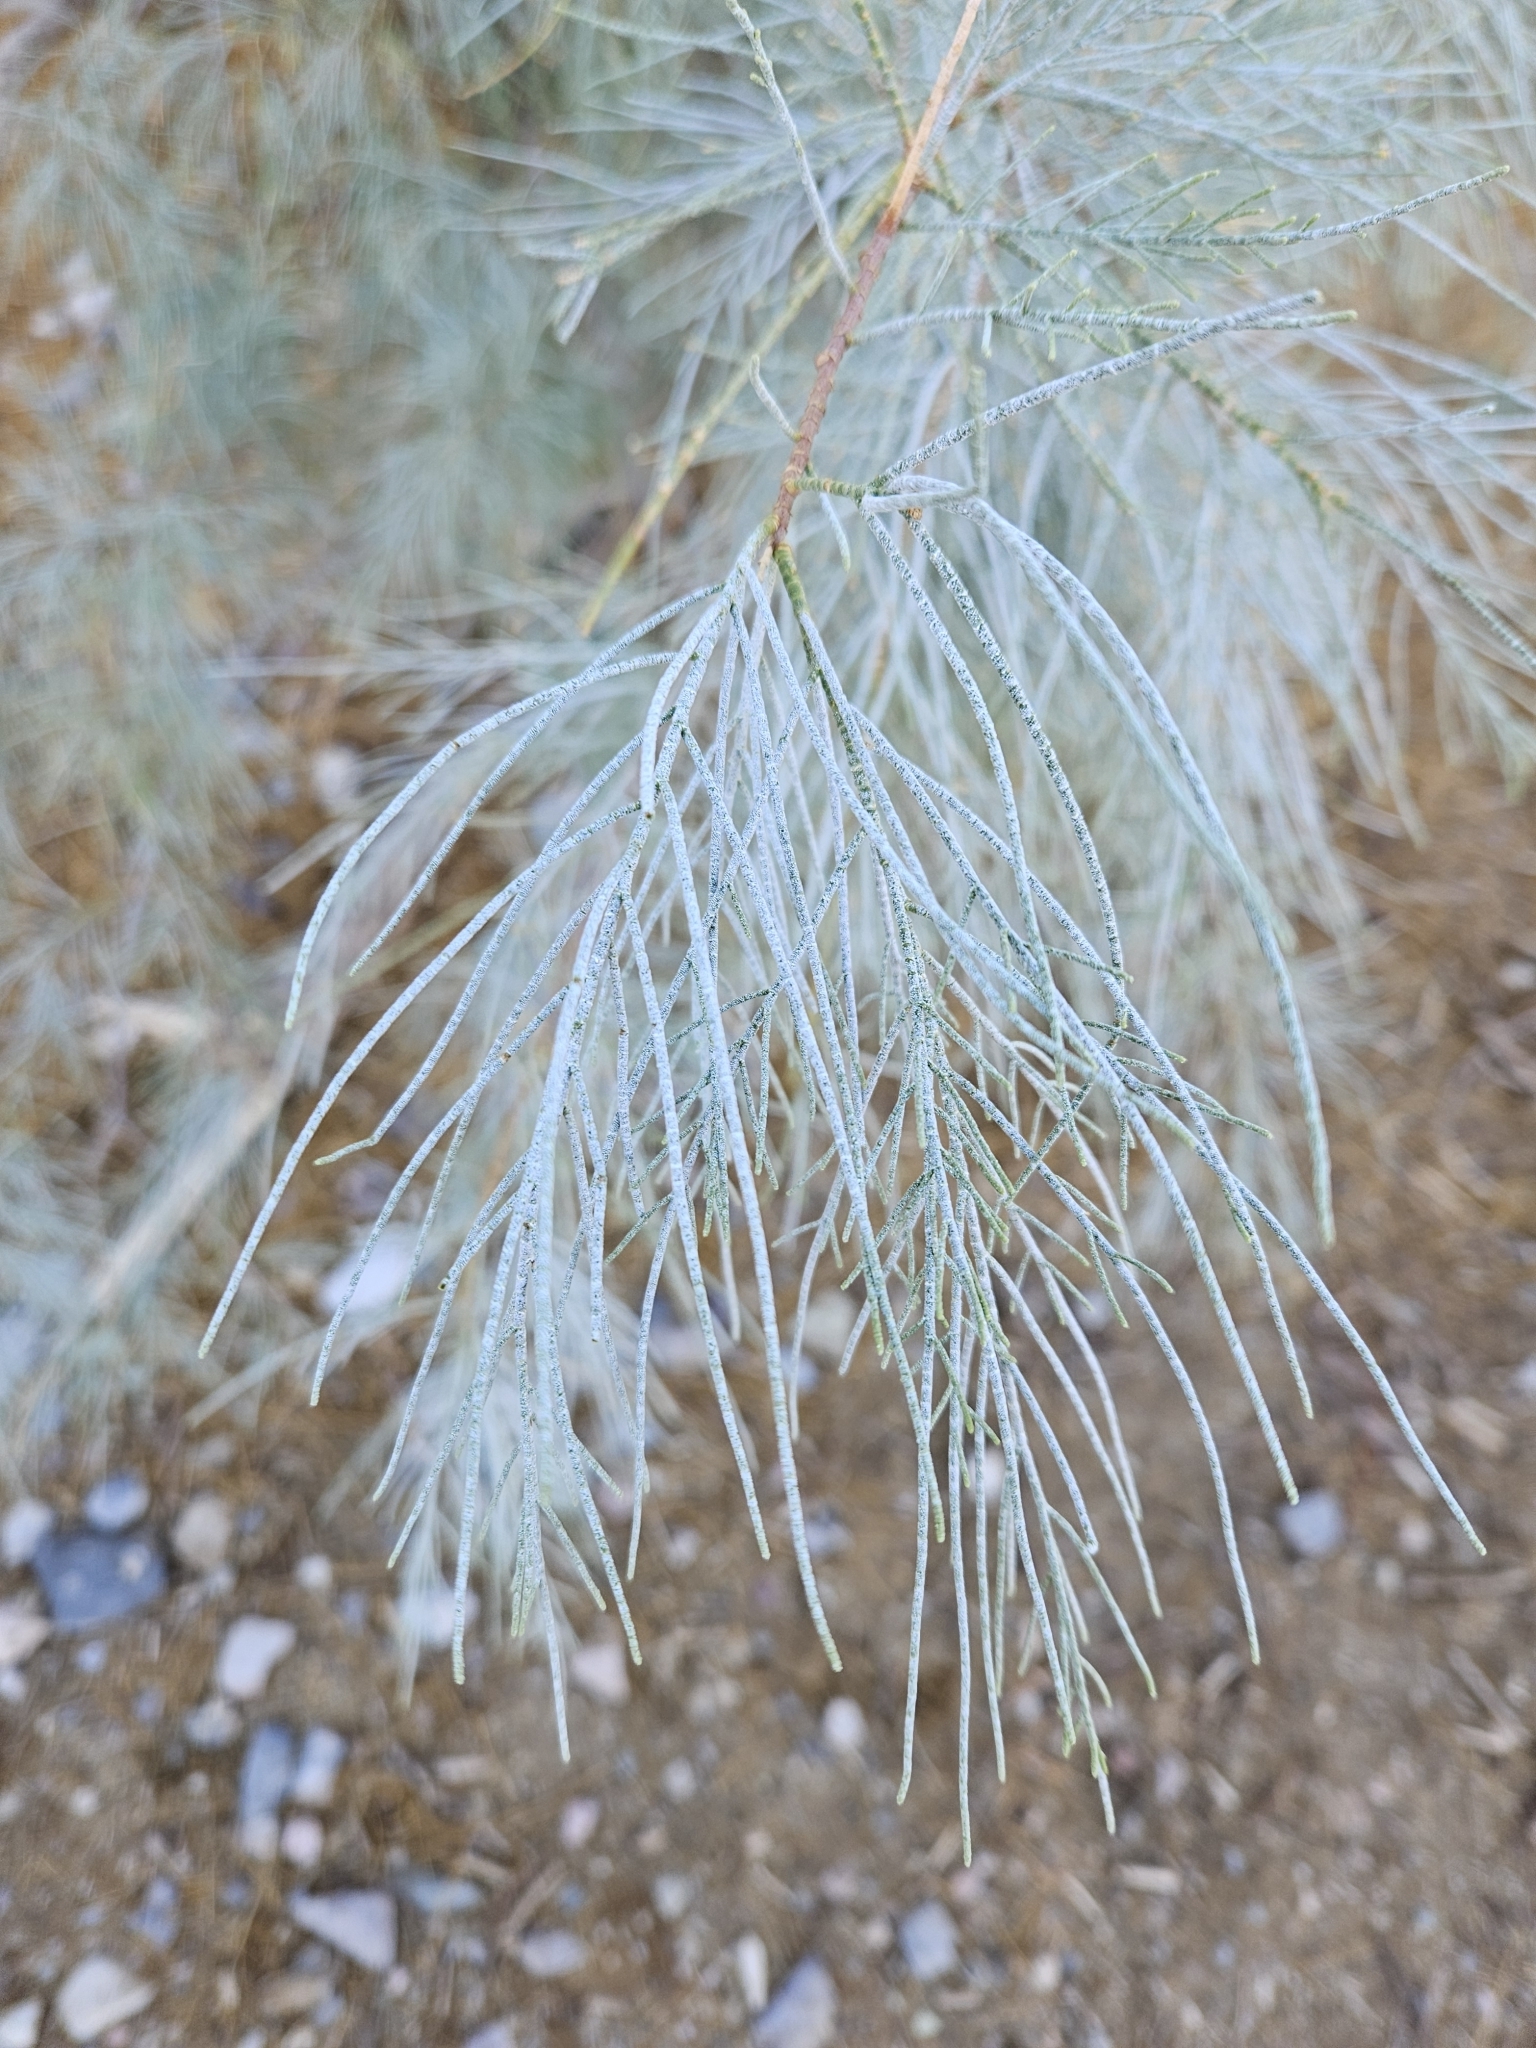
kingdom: Plantae
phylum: Tracheophyta
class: Magnoliopsida
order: Caryophyllales
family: Tamaricaceae
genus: Tamarix
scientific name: Tamarix aphylla
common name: Athel tamarisk
